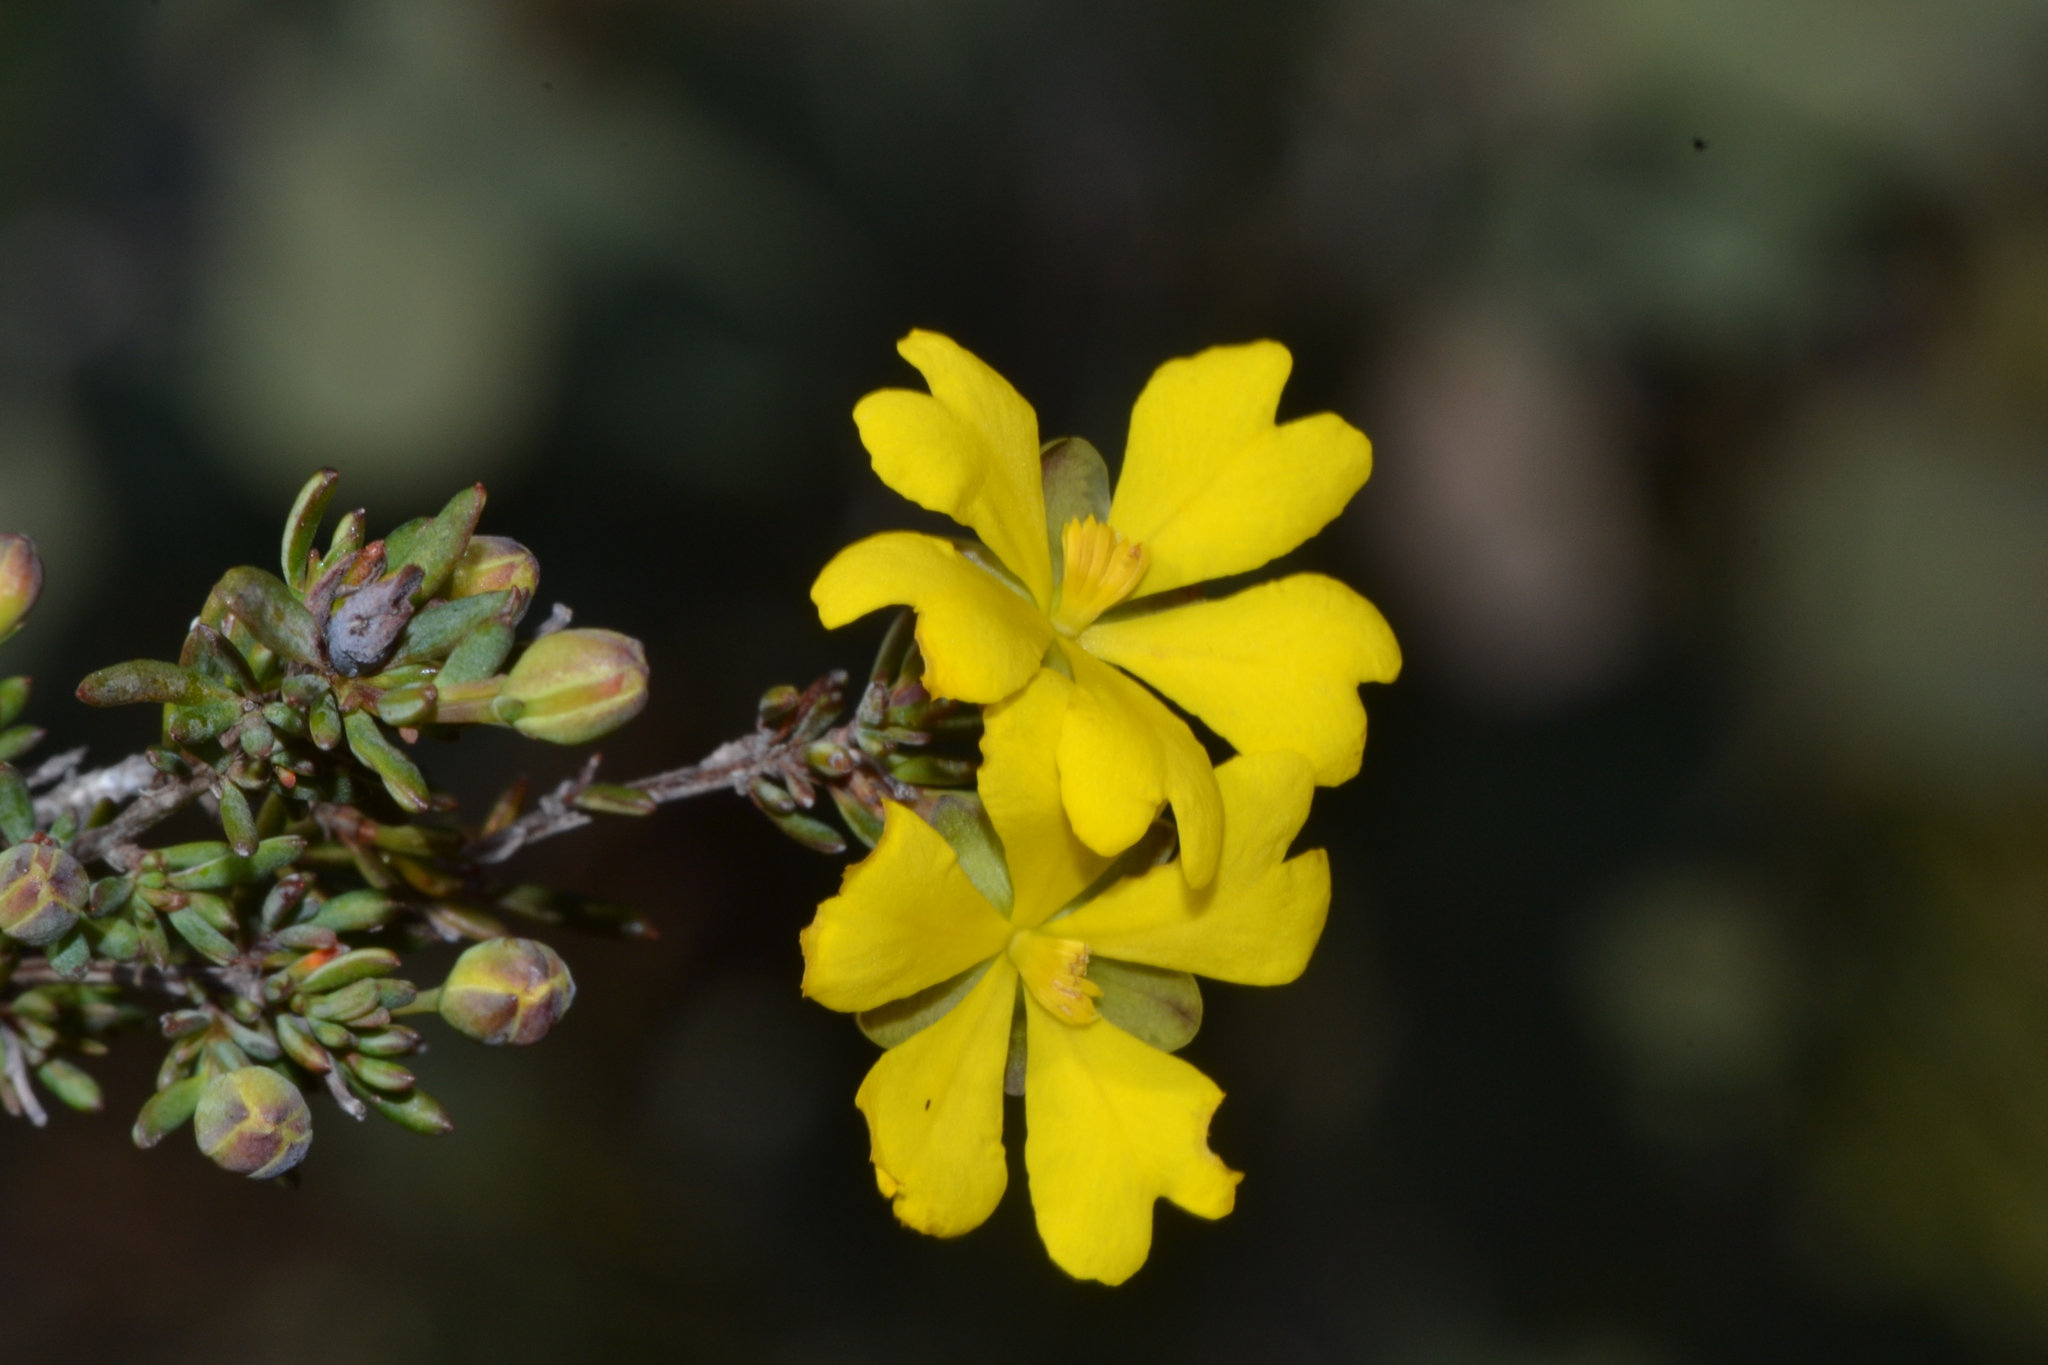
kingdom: Plantae
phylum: Tracheophyta
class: Magnoliopsida
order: Dilleniales
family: Dilleniaceae
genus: Hibbertia
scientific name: Hibbertia gracilipes
